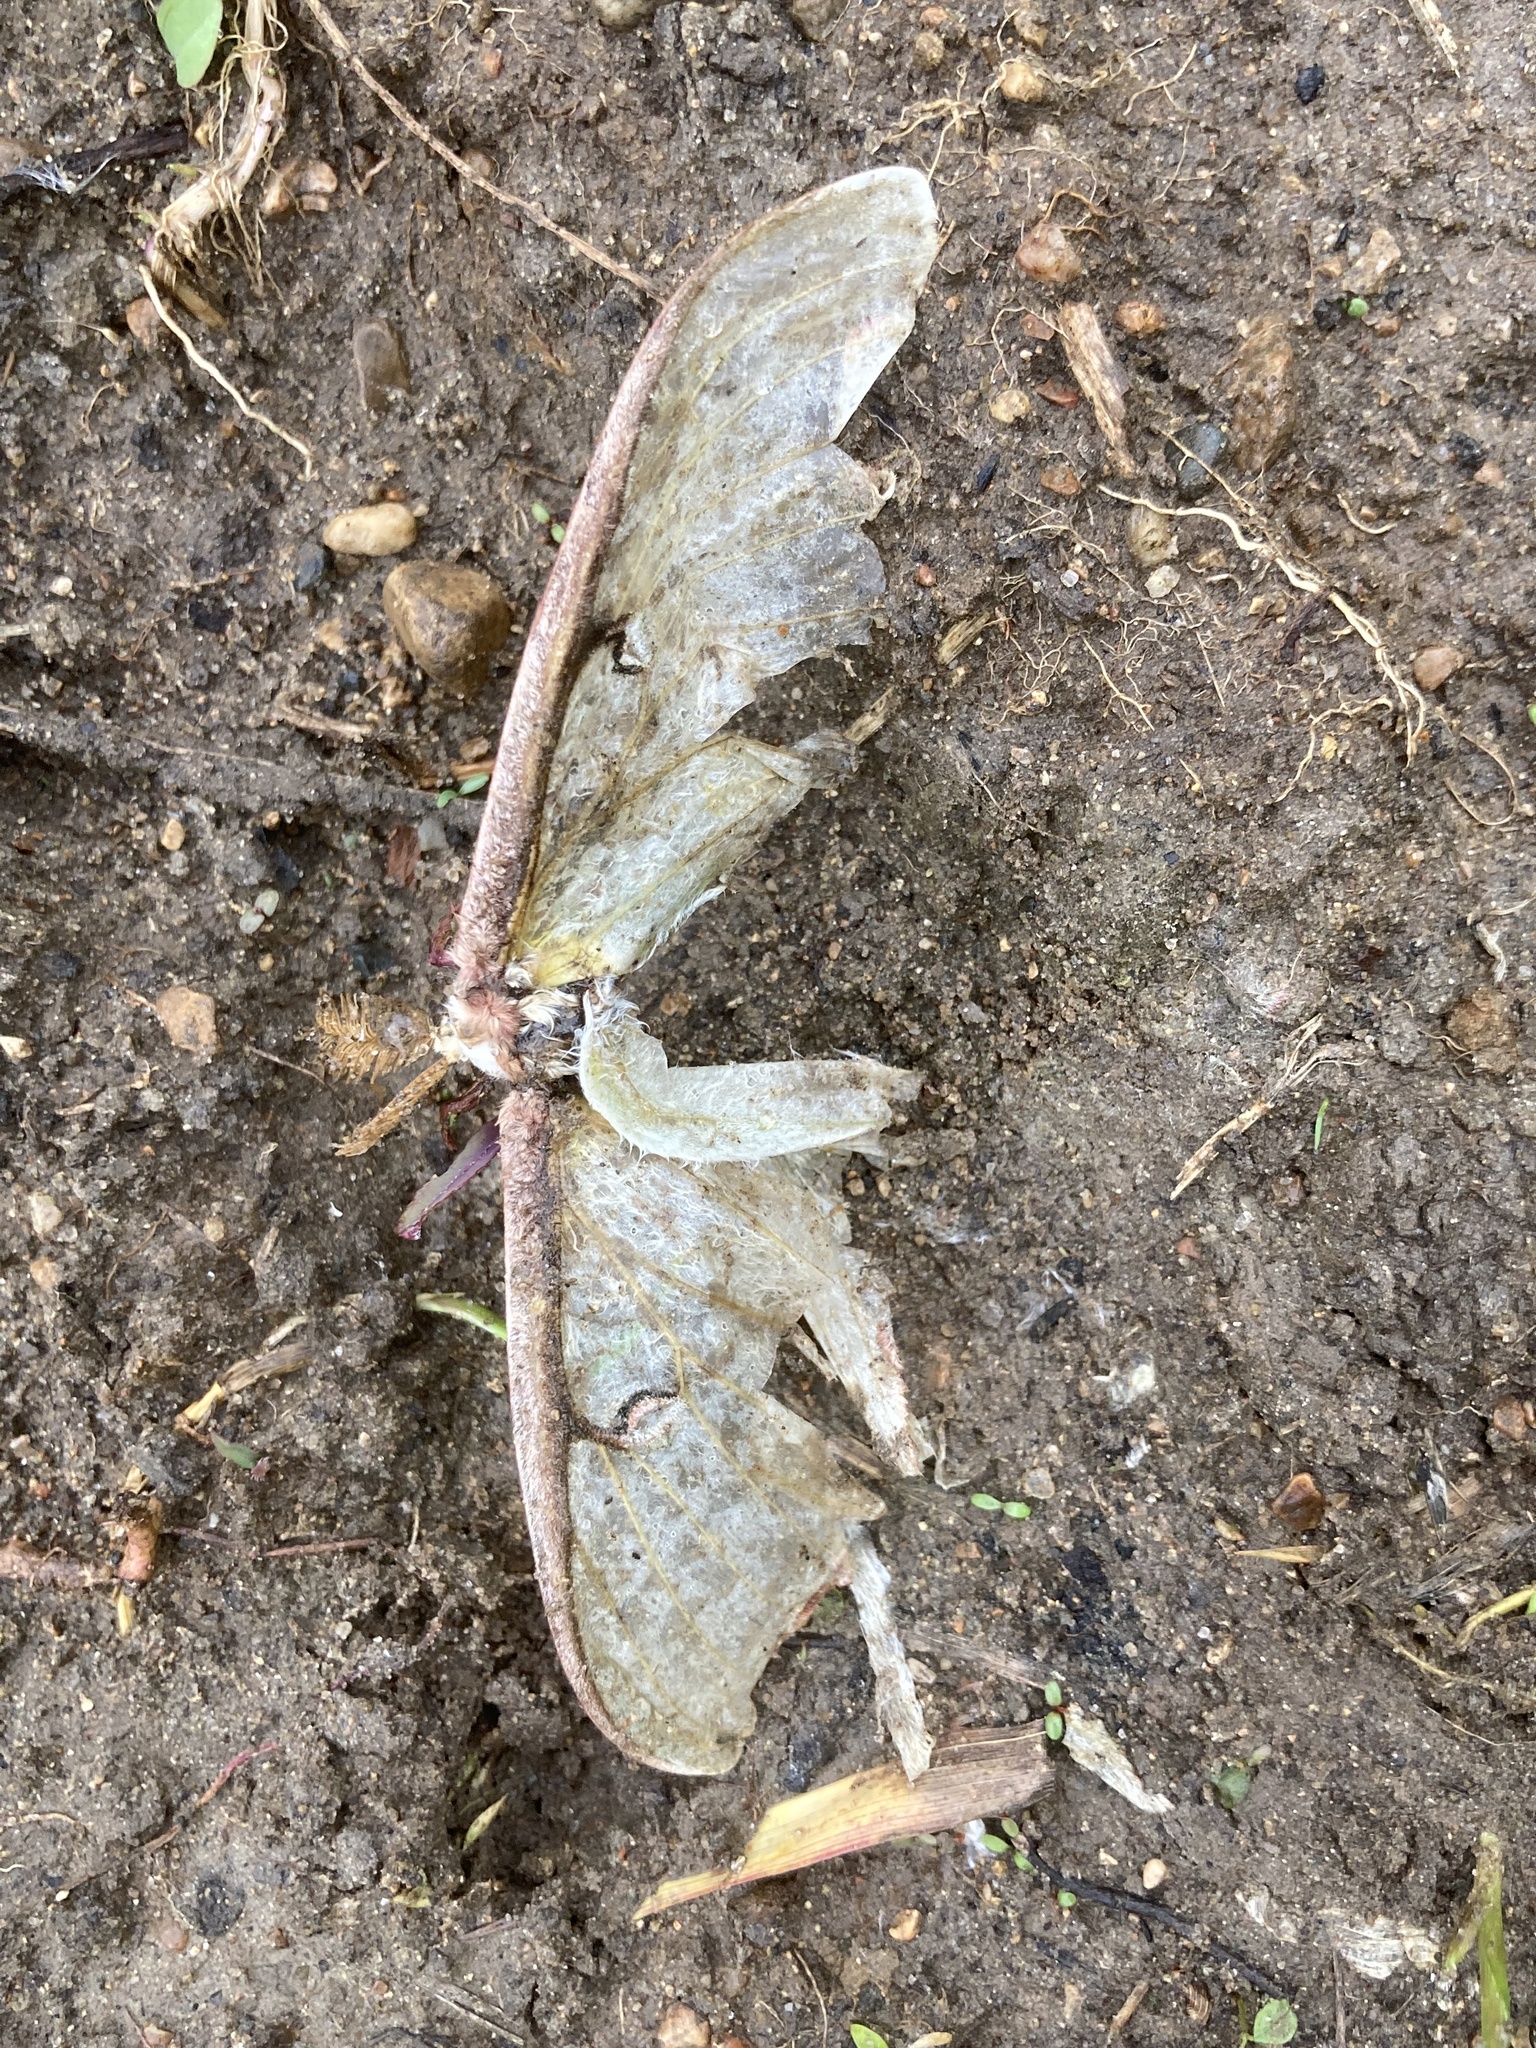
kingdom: Animalia
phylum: Arthropoda
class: Insecta
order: Lepidoptera
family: Saturniidae
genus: Actias
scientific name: Actias luna
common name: Luna moth
